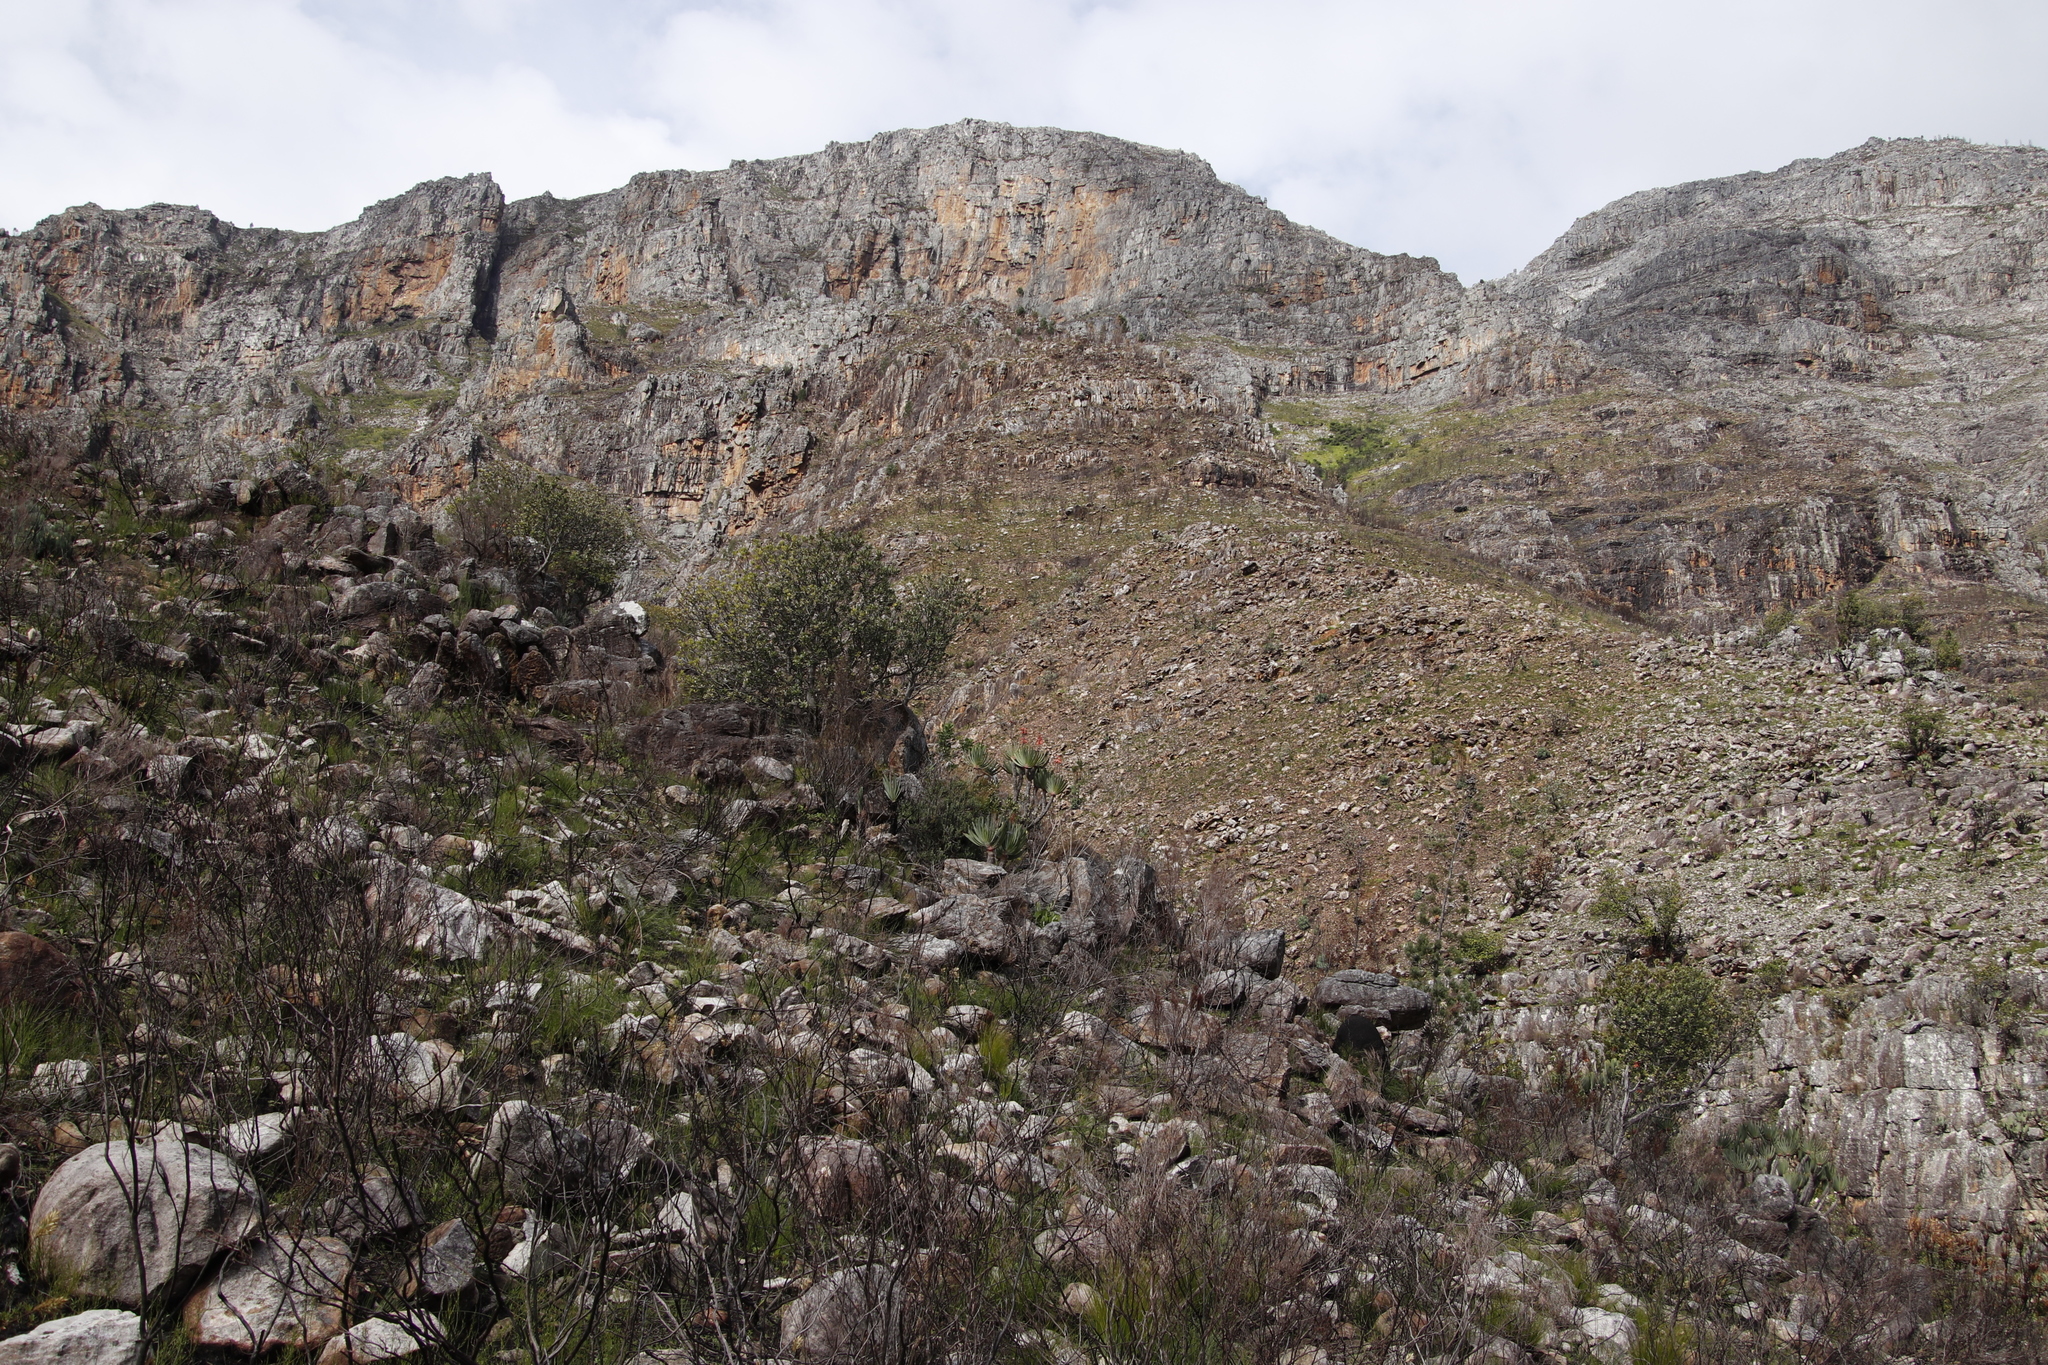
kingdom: Plantae
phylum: Tracheophyta
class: Liliopsida
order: Asparagales
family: Asphodelaceae
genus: Kumara
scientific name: Kumara plicatilis
